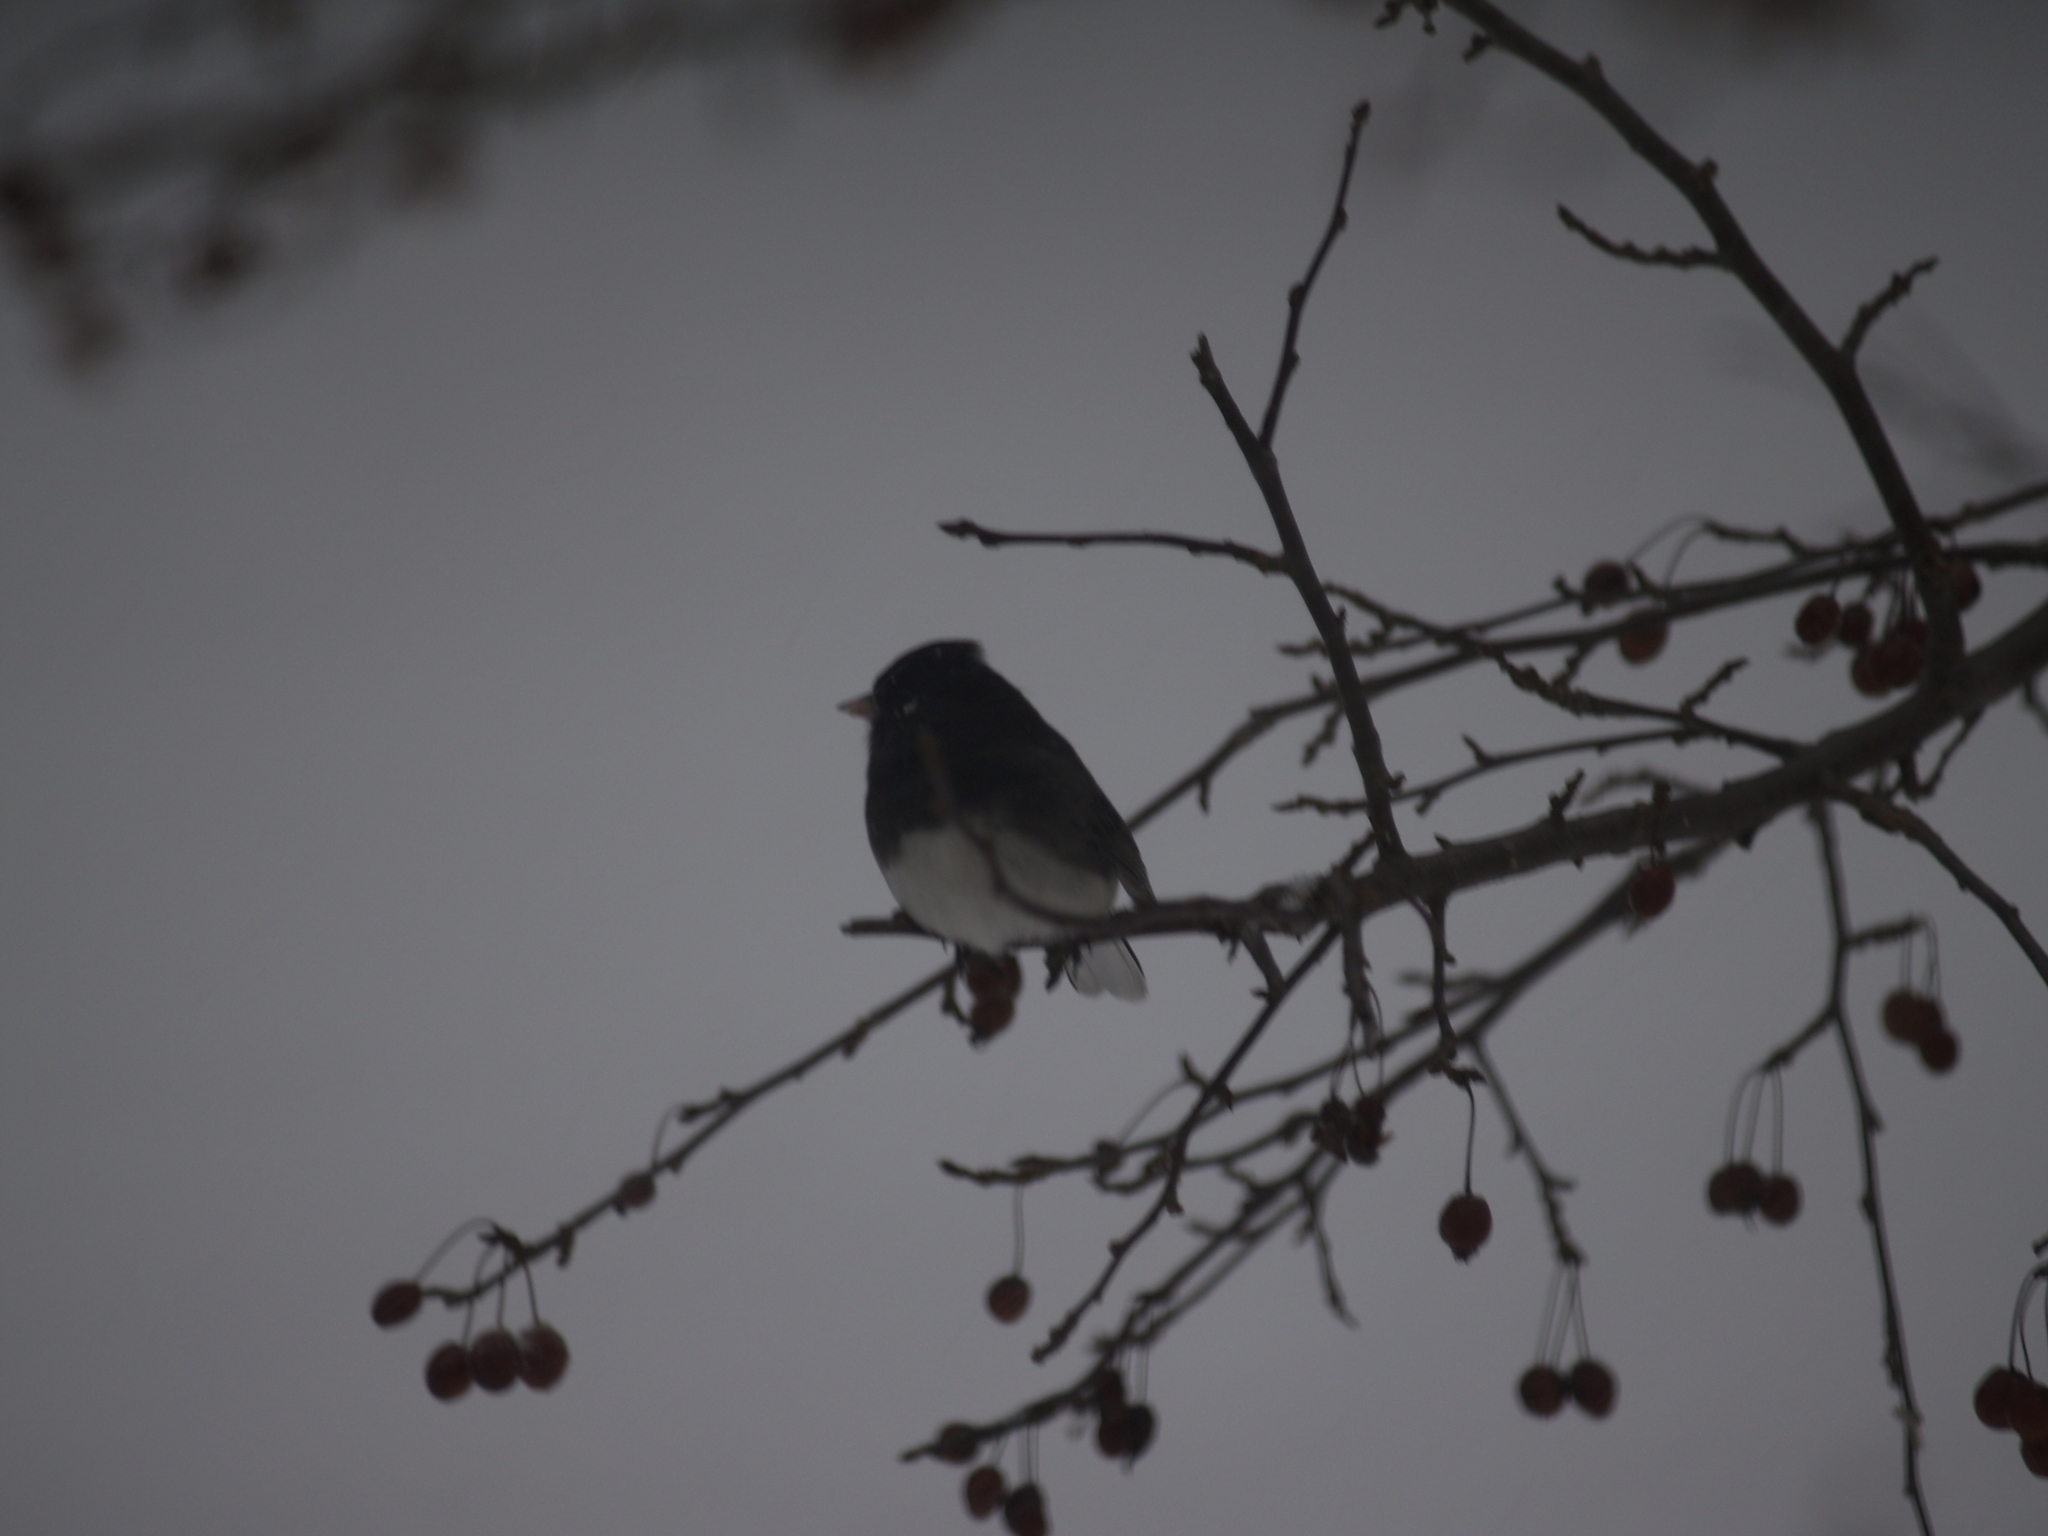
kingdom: Animalia
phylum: Chordata
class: Aves
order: Passeriformes
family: Passerellidae
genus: Junco
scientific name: Junco hyemalis
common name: Dark-eyed junco
